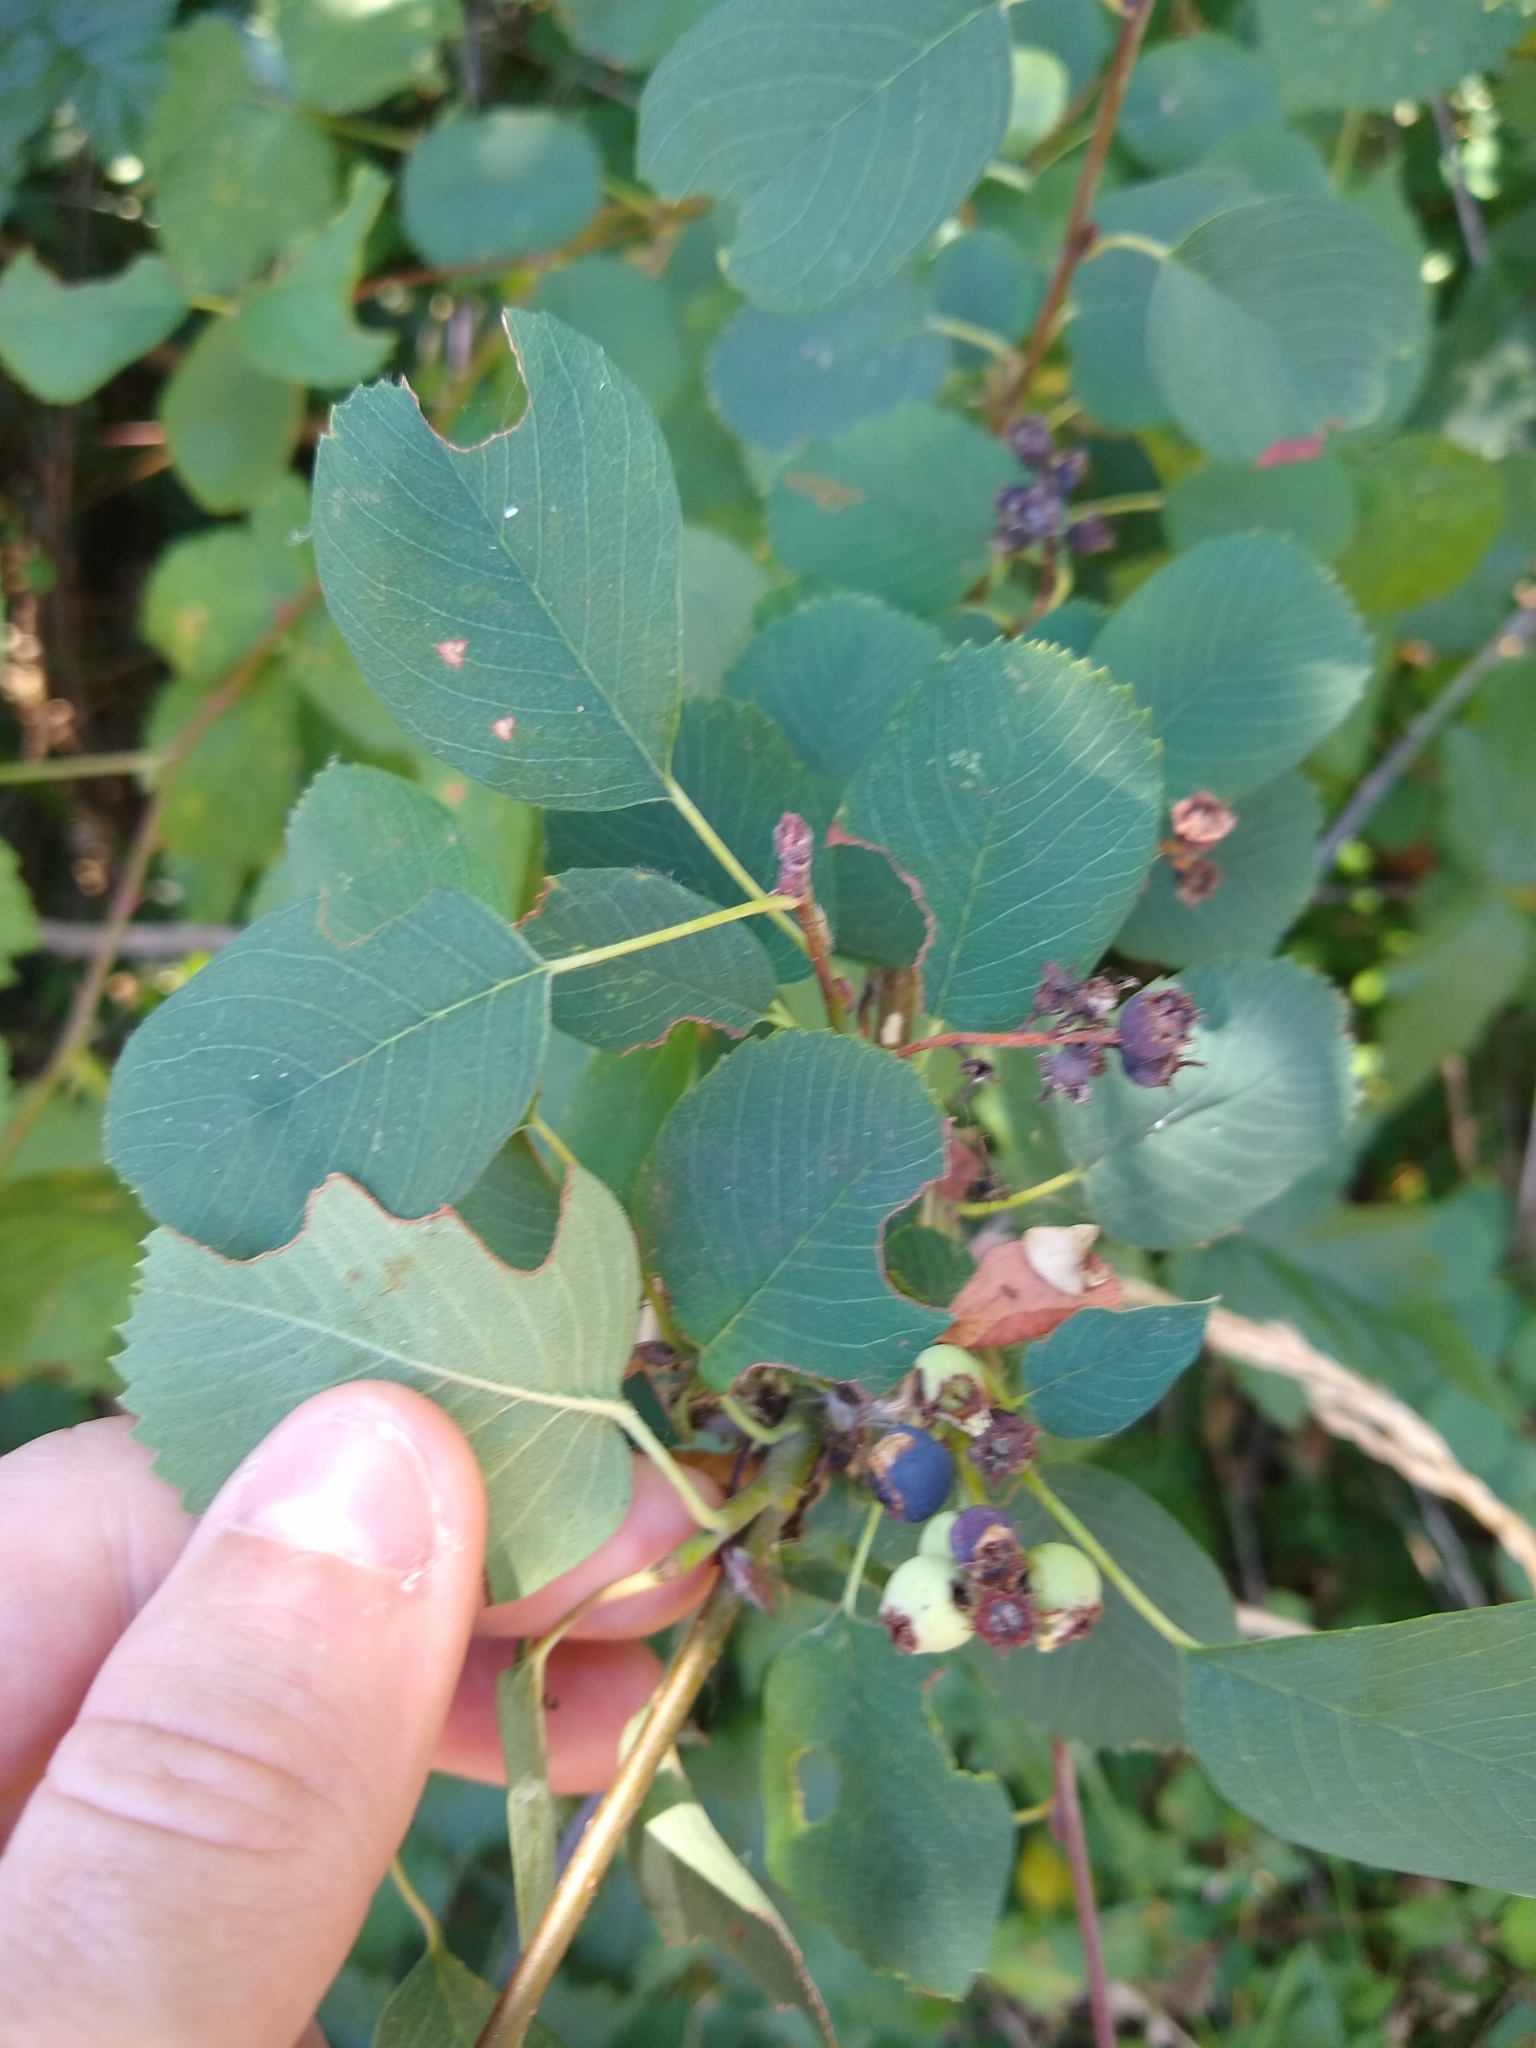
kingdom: Plantae
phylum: Tracheophyta
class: Magnoliopsida
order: Rosales
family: Rosaceae
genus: Amelanchier
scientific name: Amelanchier alnifolia
